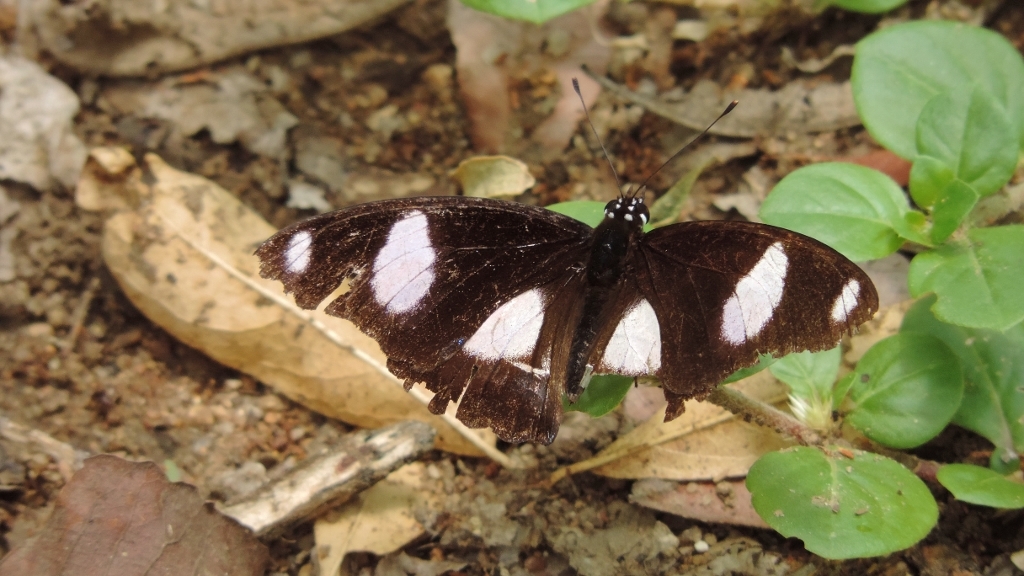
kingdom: Animalia
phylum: Arthropoda
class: Insecta
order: Lepidoptera
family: Nymphalidae
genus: Hypolimnas
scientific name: Hypolimnas misippus
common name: False plain tiger
